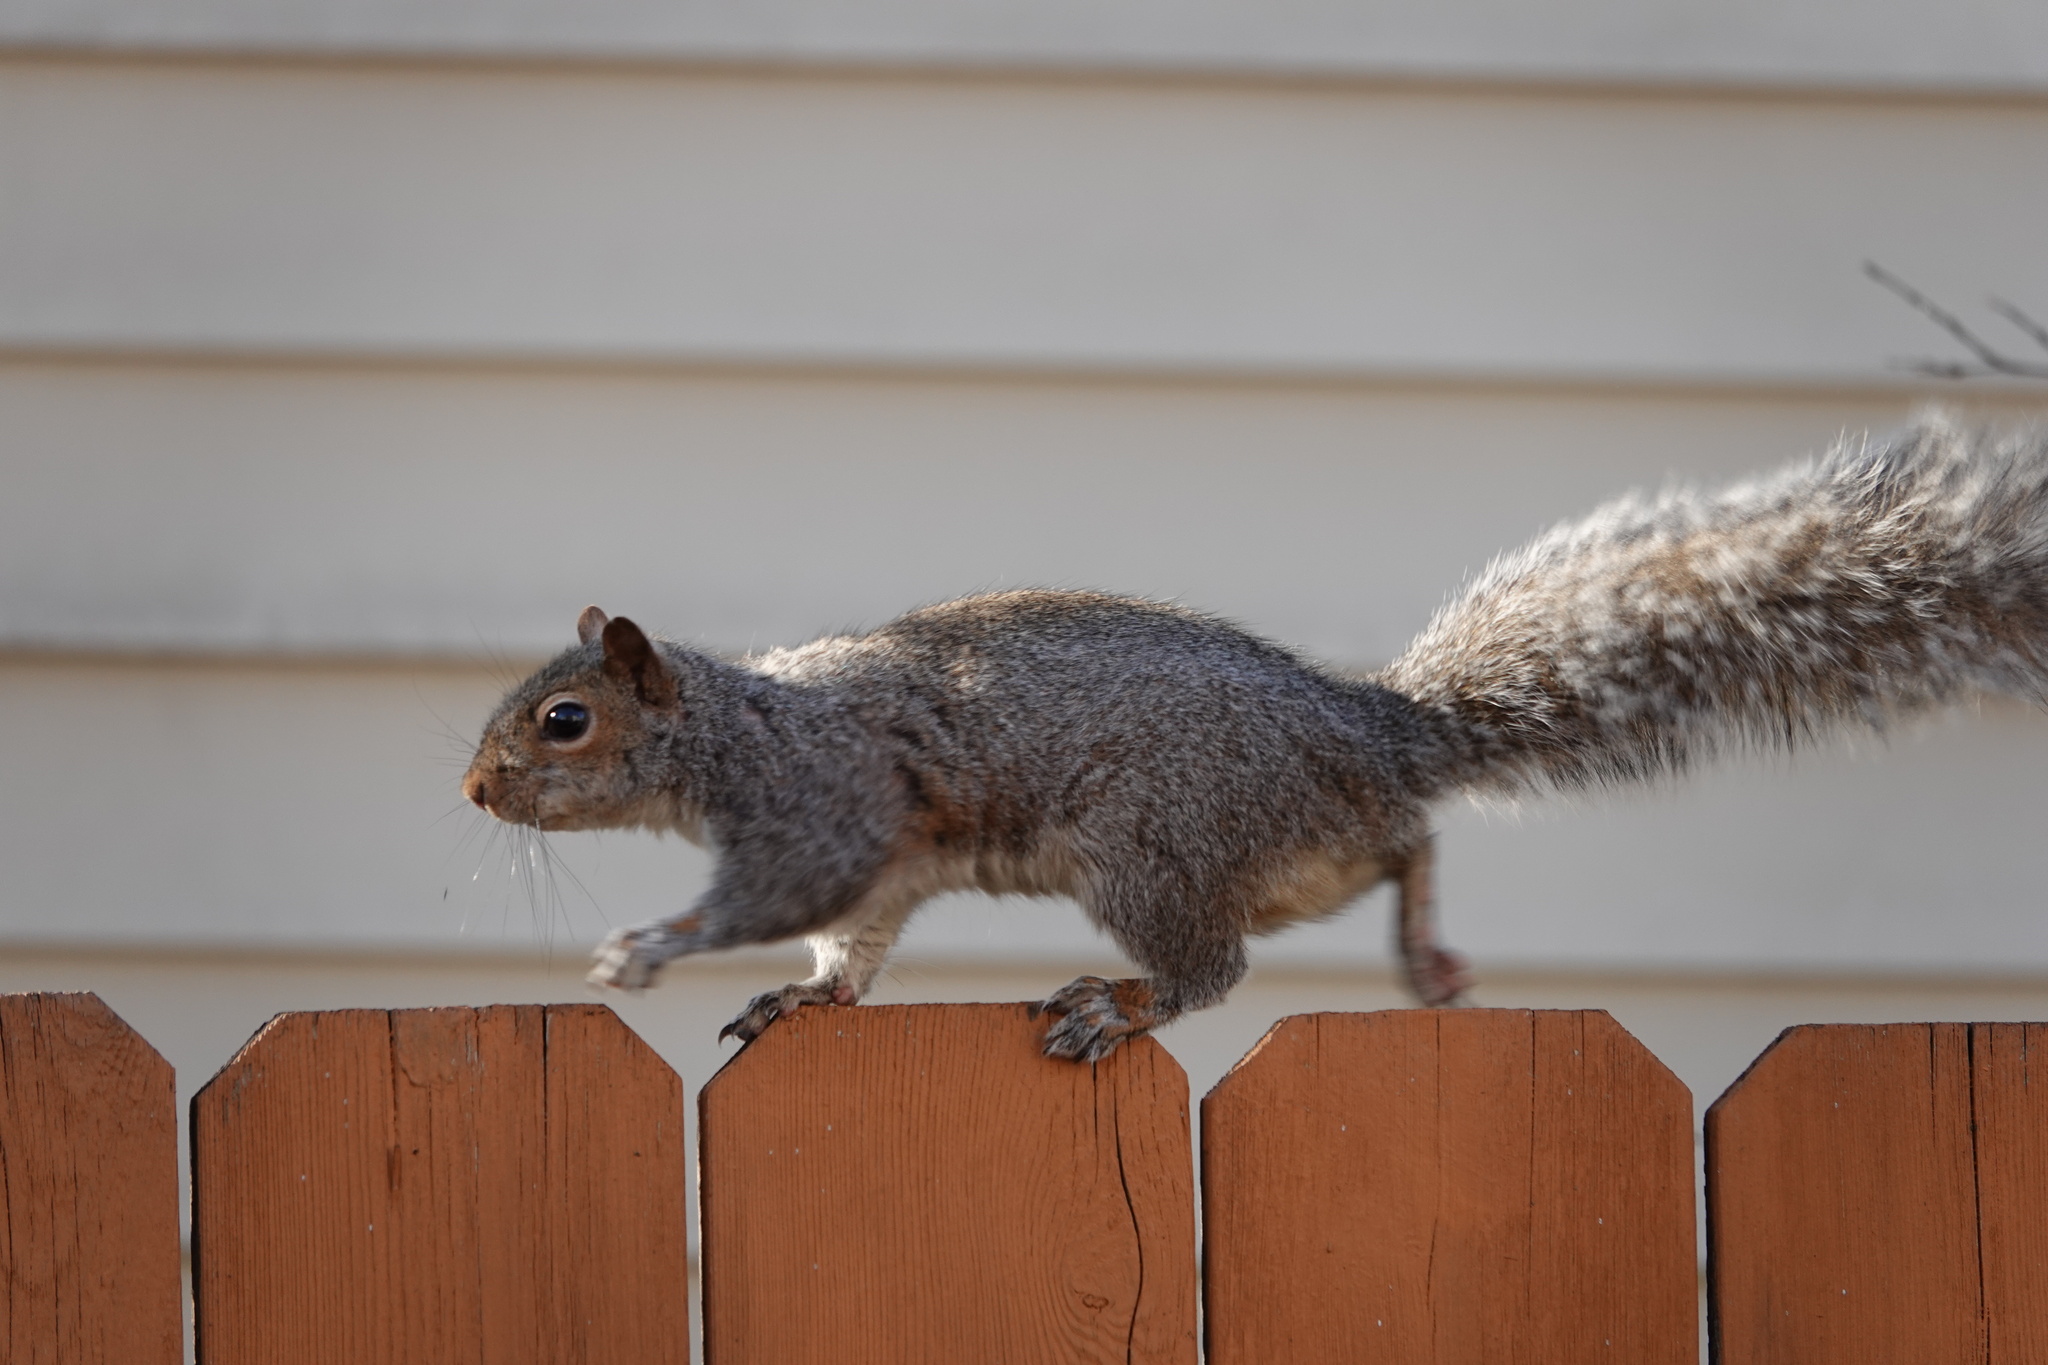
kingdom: Animalia
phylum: Chordata
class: Mammalia
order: Rodentia
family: Sciuridae
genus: Sciurus
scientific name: Sciurus carolinensis
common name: Eastern gray squirrel
